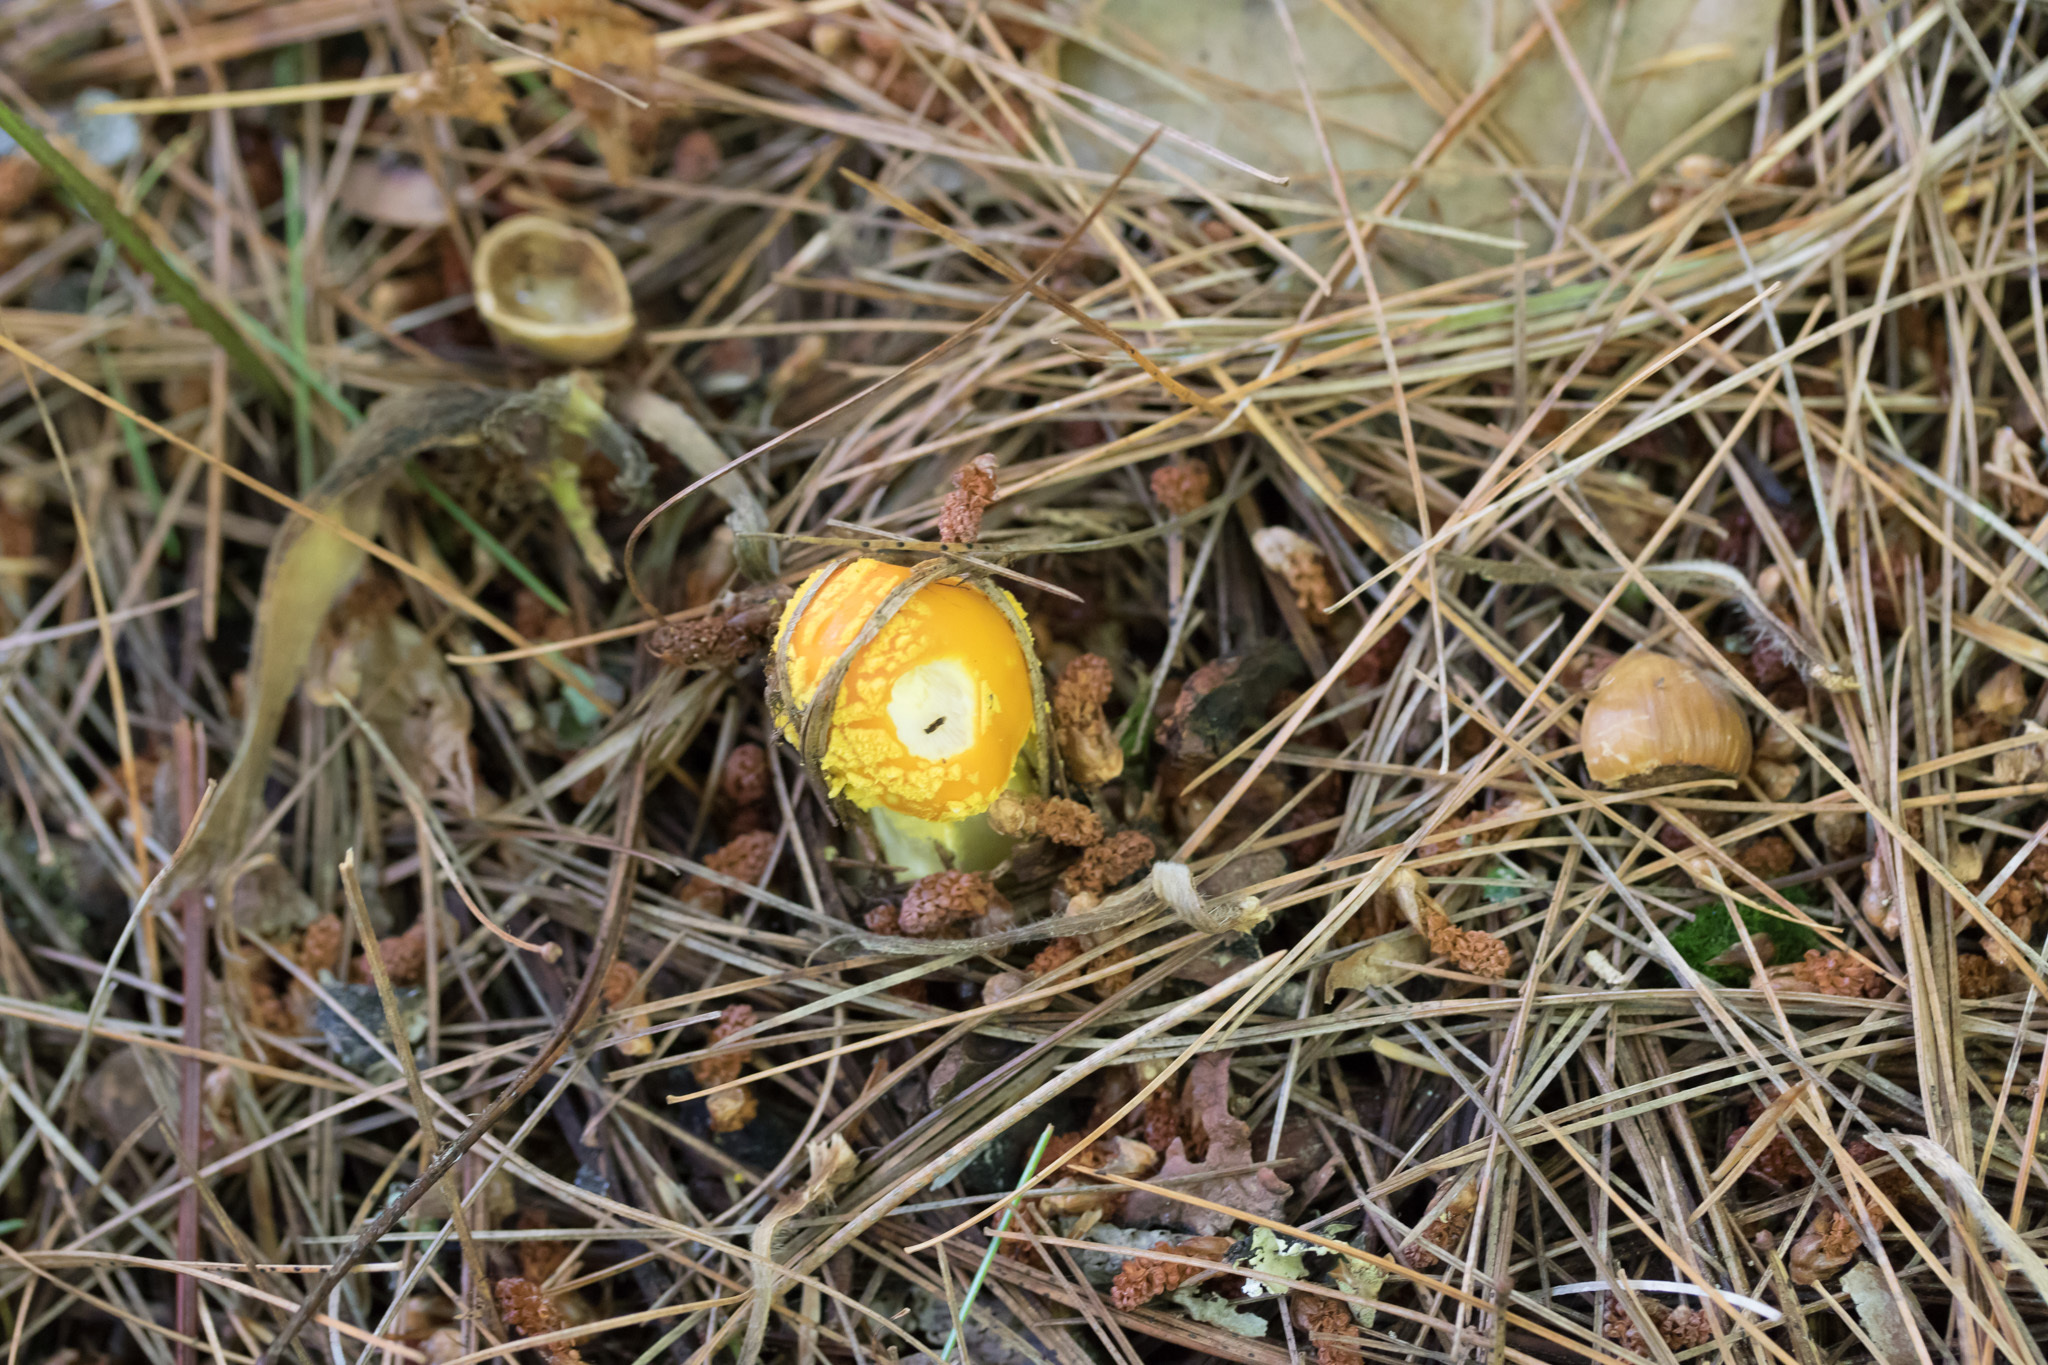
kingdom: Fungi
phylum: Basidiomycota
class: Agaricomycetes
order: Agaricales
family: Amanitaceae
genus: Amanita
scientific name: Amanita flavoconia
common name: Yellow patches
